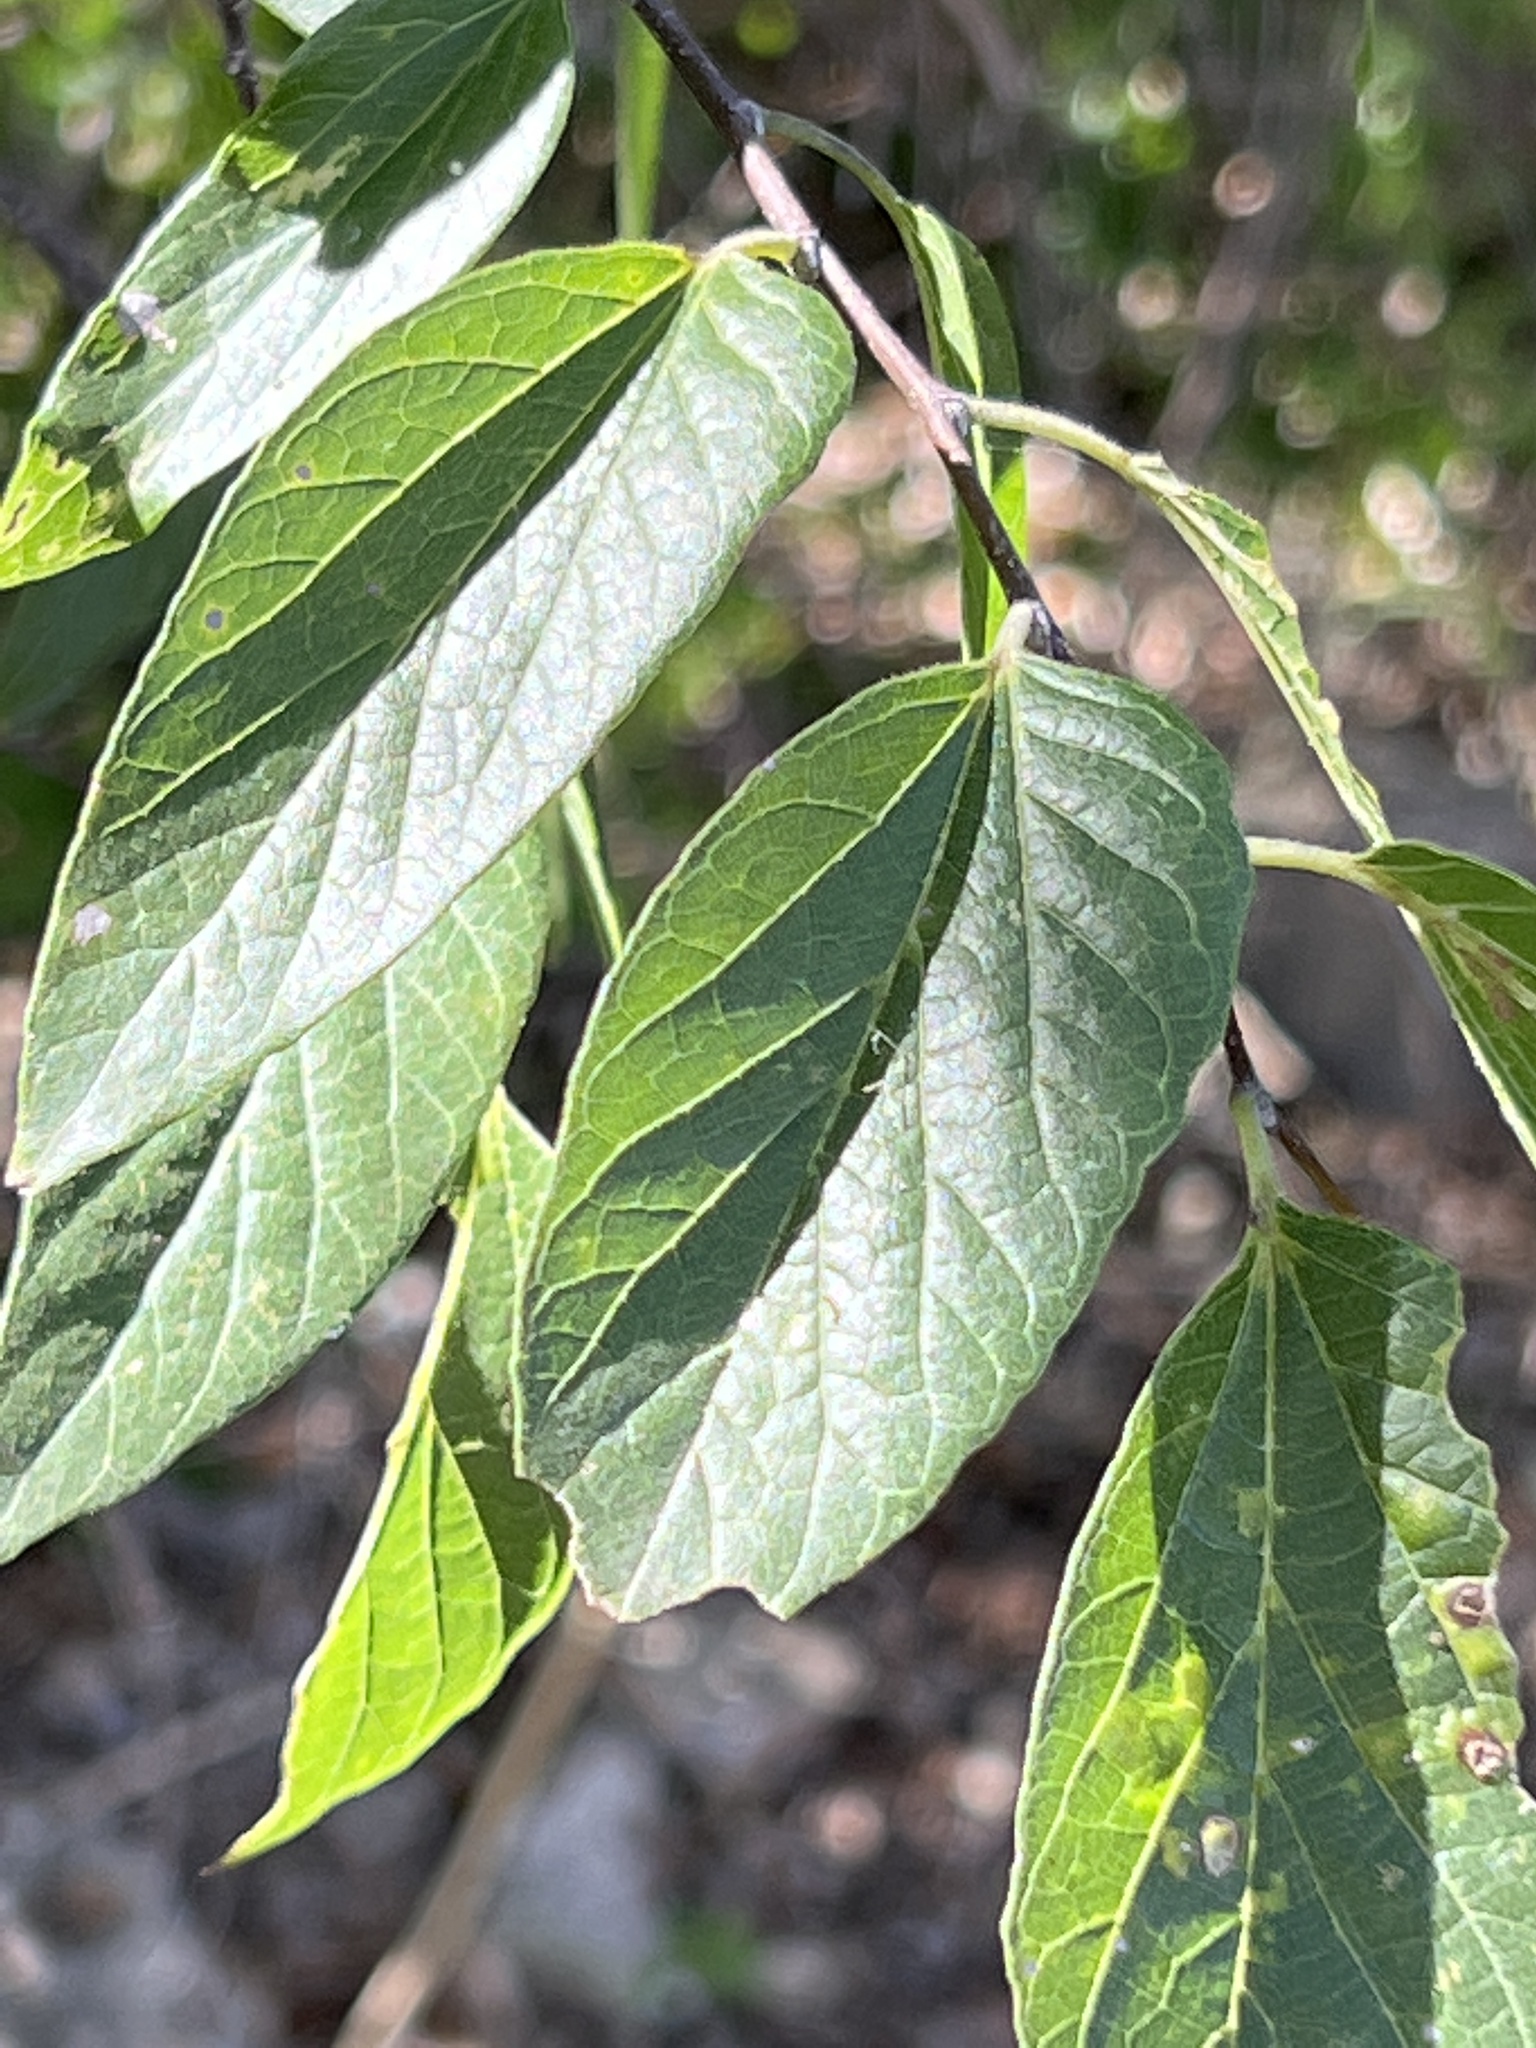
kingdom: Plantae
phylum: Tracheophyta
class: Magnoliopsida
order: Rosales
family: Cannabaceae
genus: Celtis
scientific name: Celtis laevigata
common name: Sugarberry
